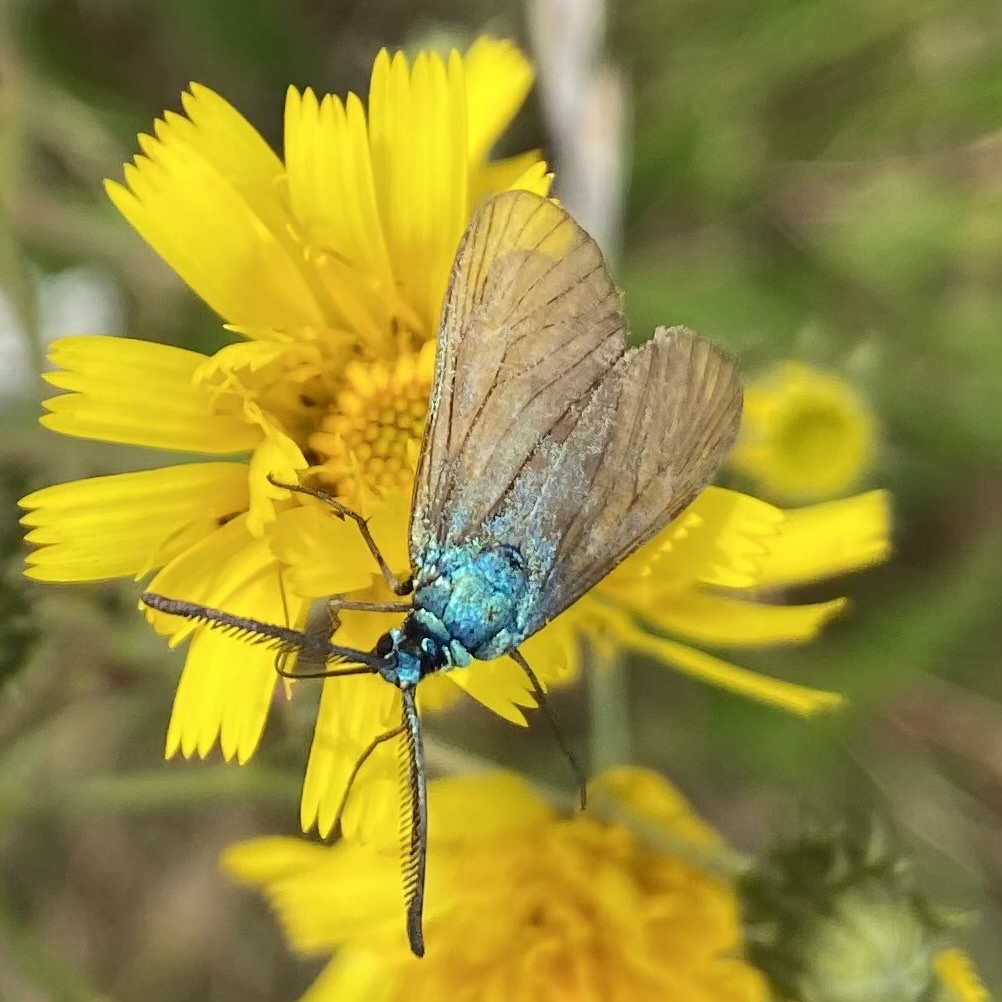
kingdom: Animalia
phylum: Arthropoda
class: Insecta
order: Lepidoptera
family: Zygaenidae
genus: Adscita
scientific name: Adscita statices
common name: Forester
